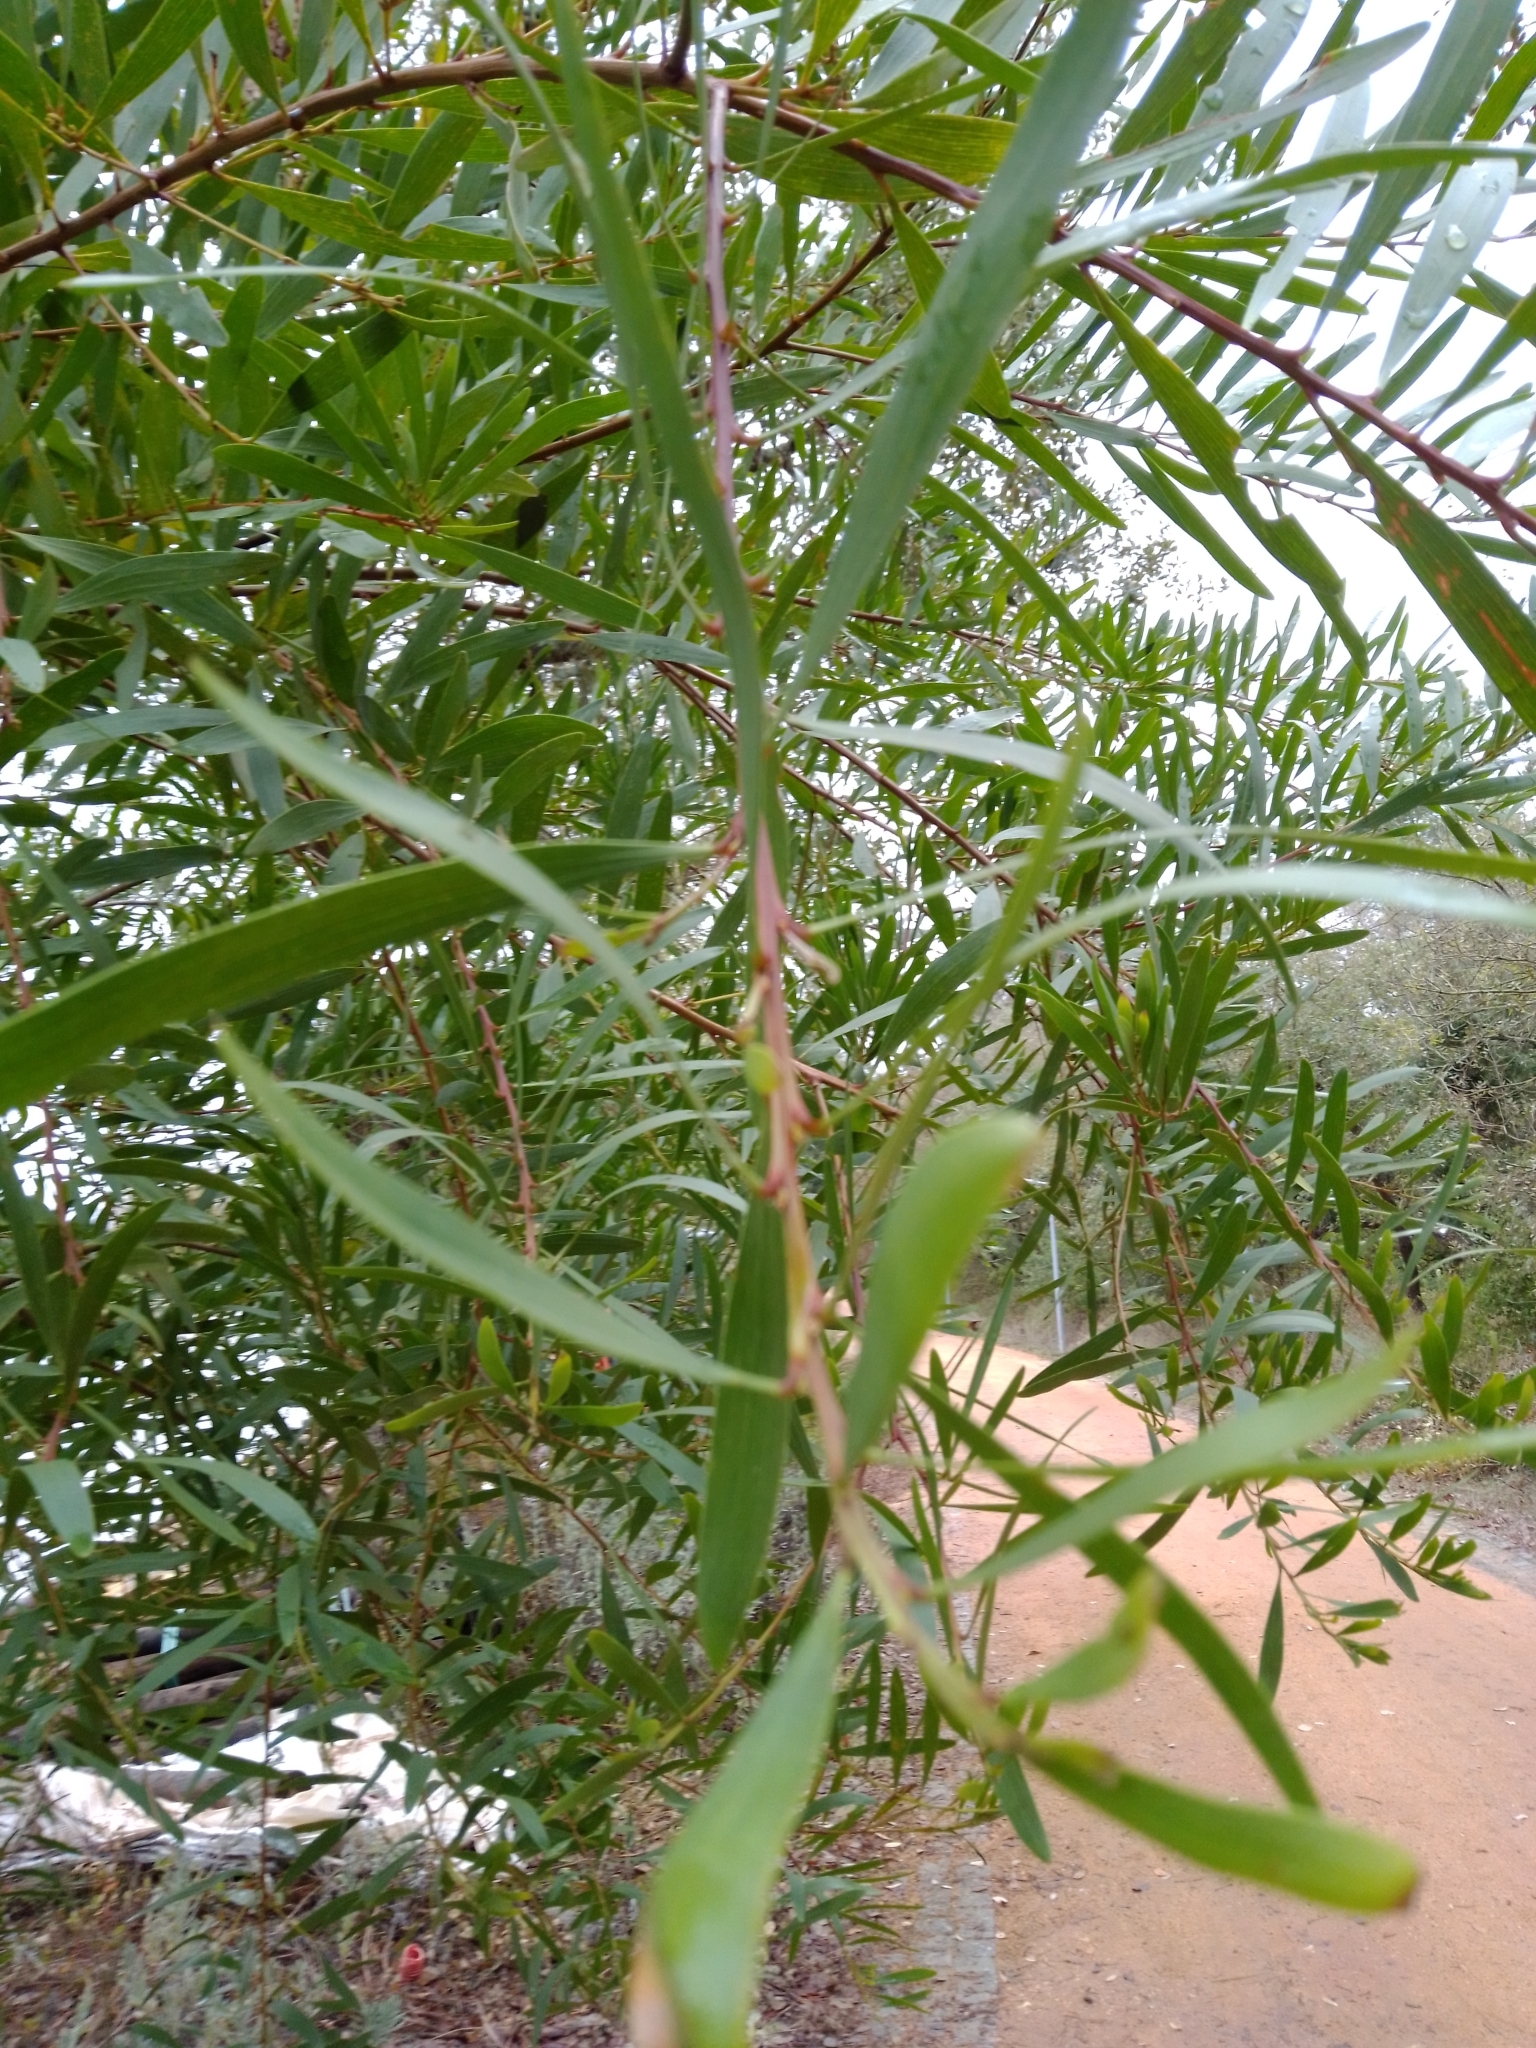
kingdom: Plantae
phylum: Tracheophyta
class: Magnoliopsida
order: Fabales
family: Fabaceae
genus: Acacia
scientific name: Acacia longifolia
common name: Sydney golden wattle
